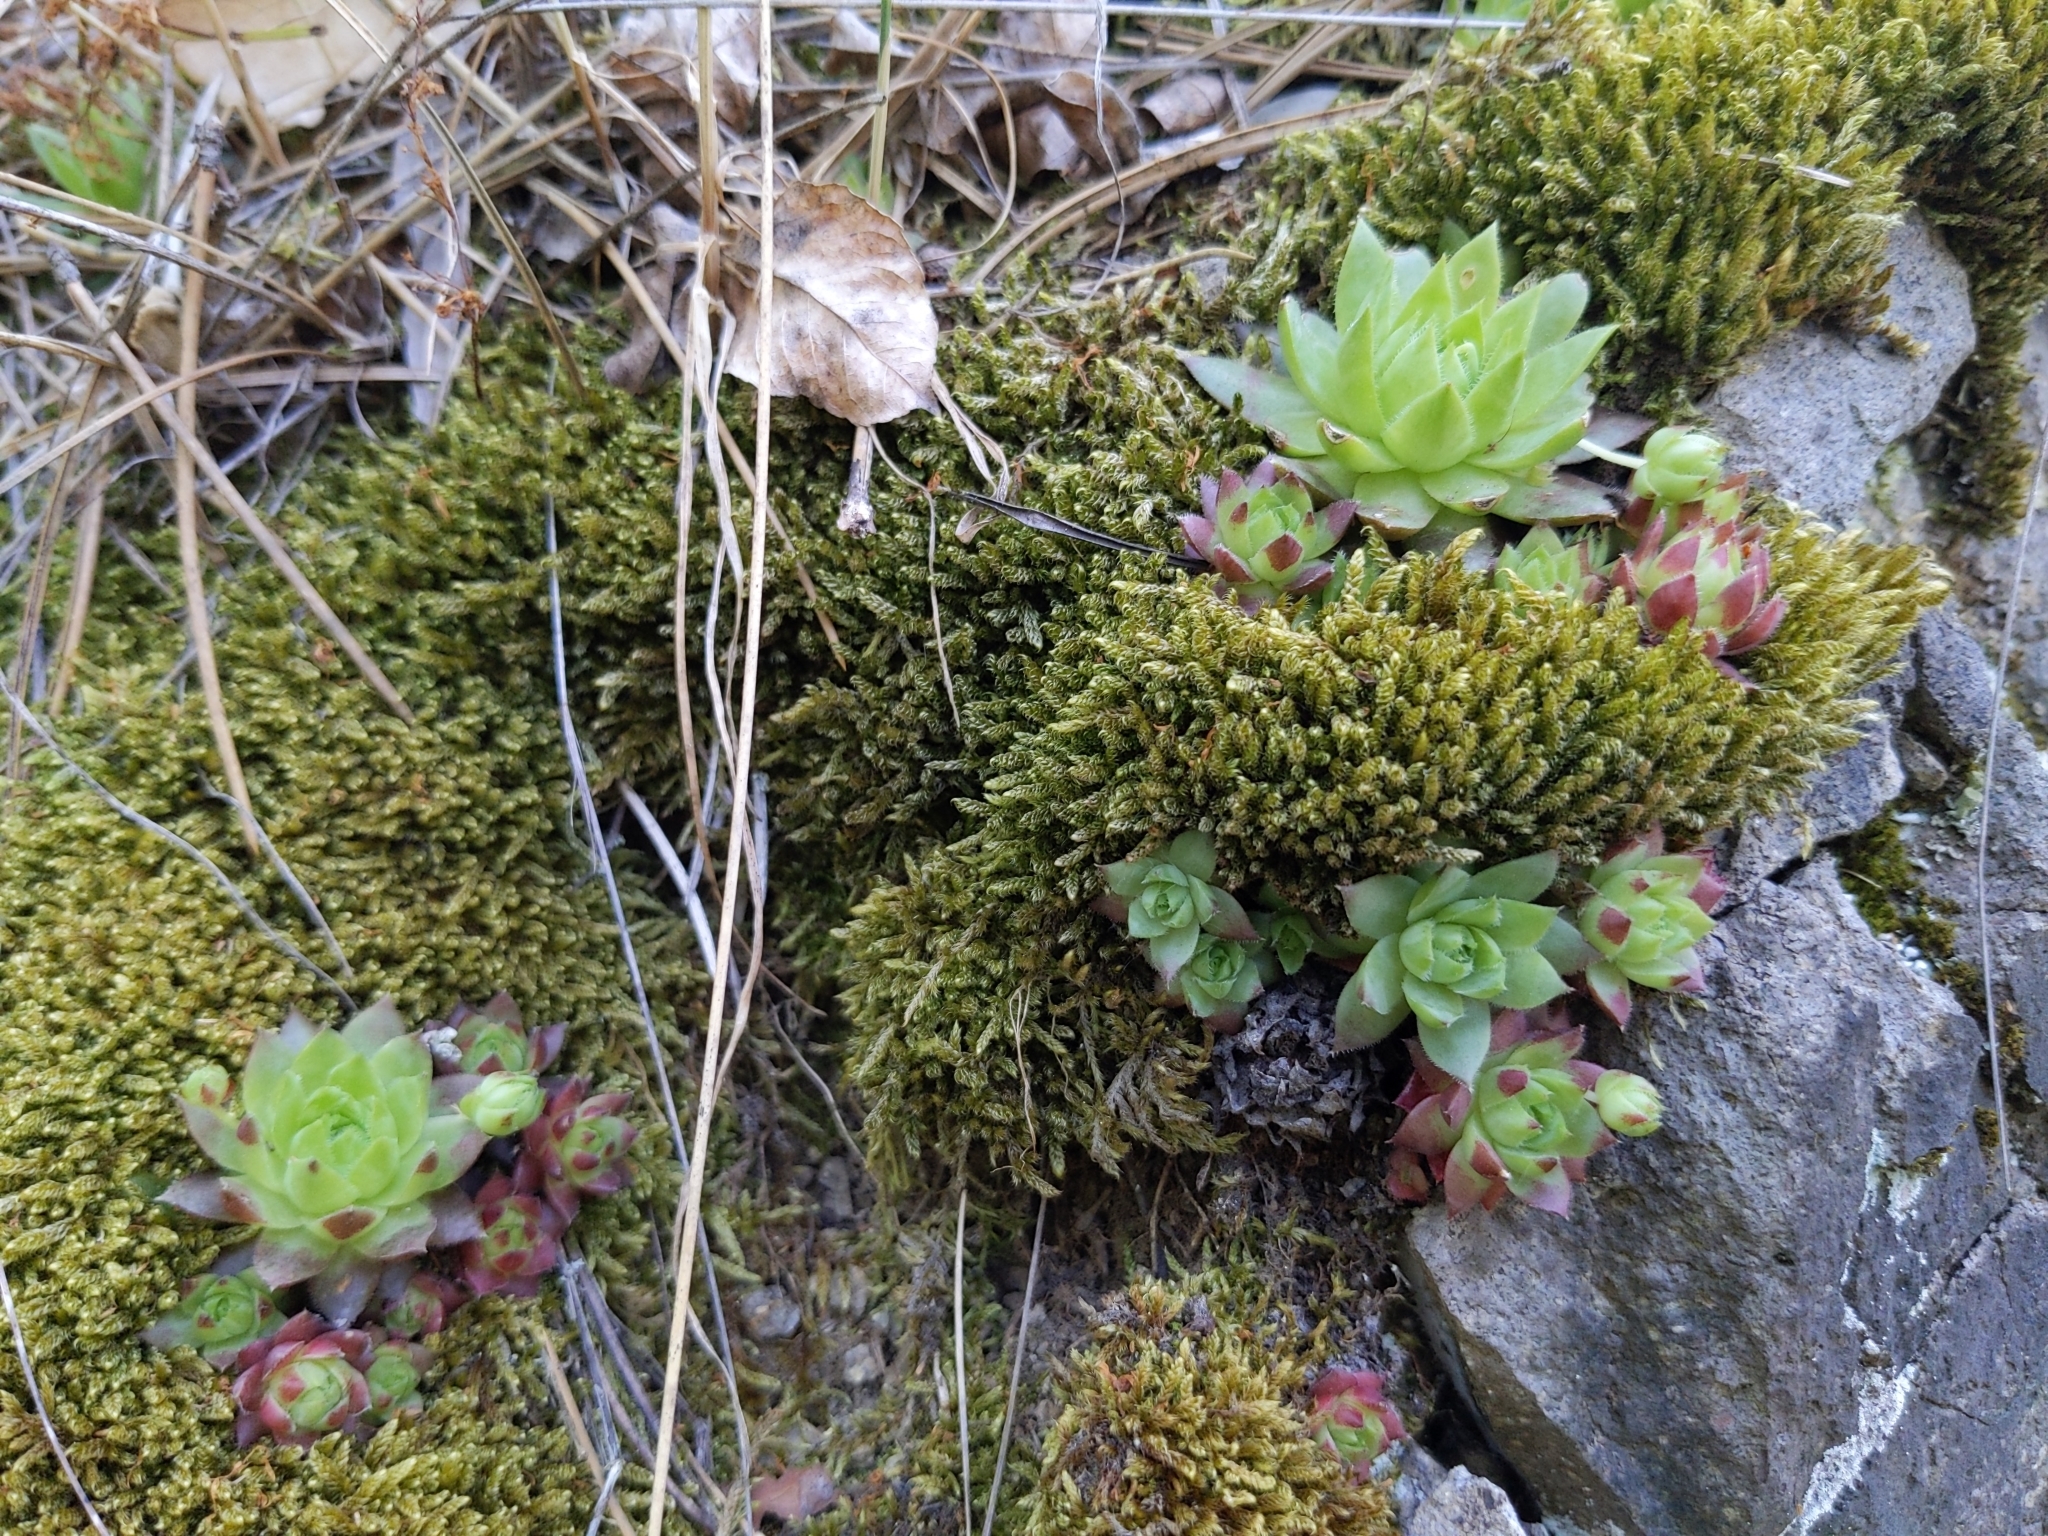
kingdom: Plantae
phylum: Tracheophyta
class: Magnoliopsida
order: Saxifragales
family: Crassulaceae
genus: Sempervivum
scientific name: Sempervivum globiferum
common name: Rolling hen-and-chicks
